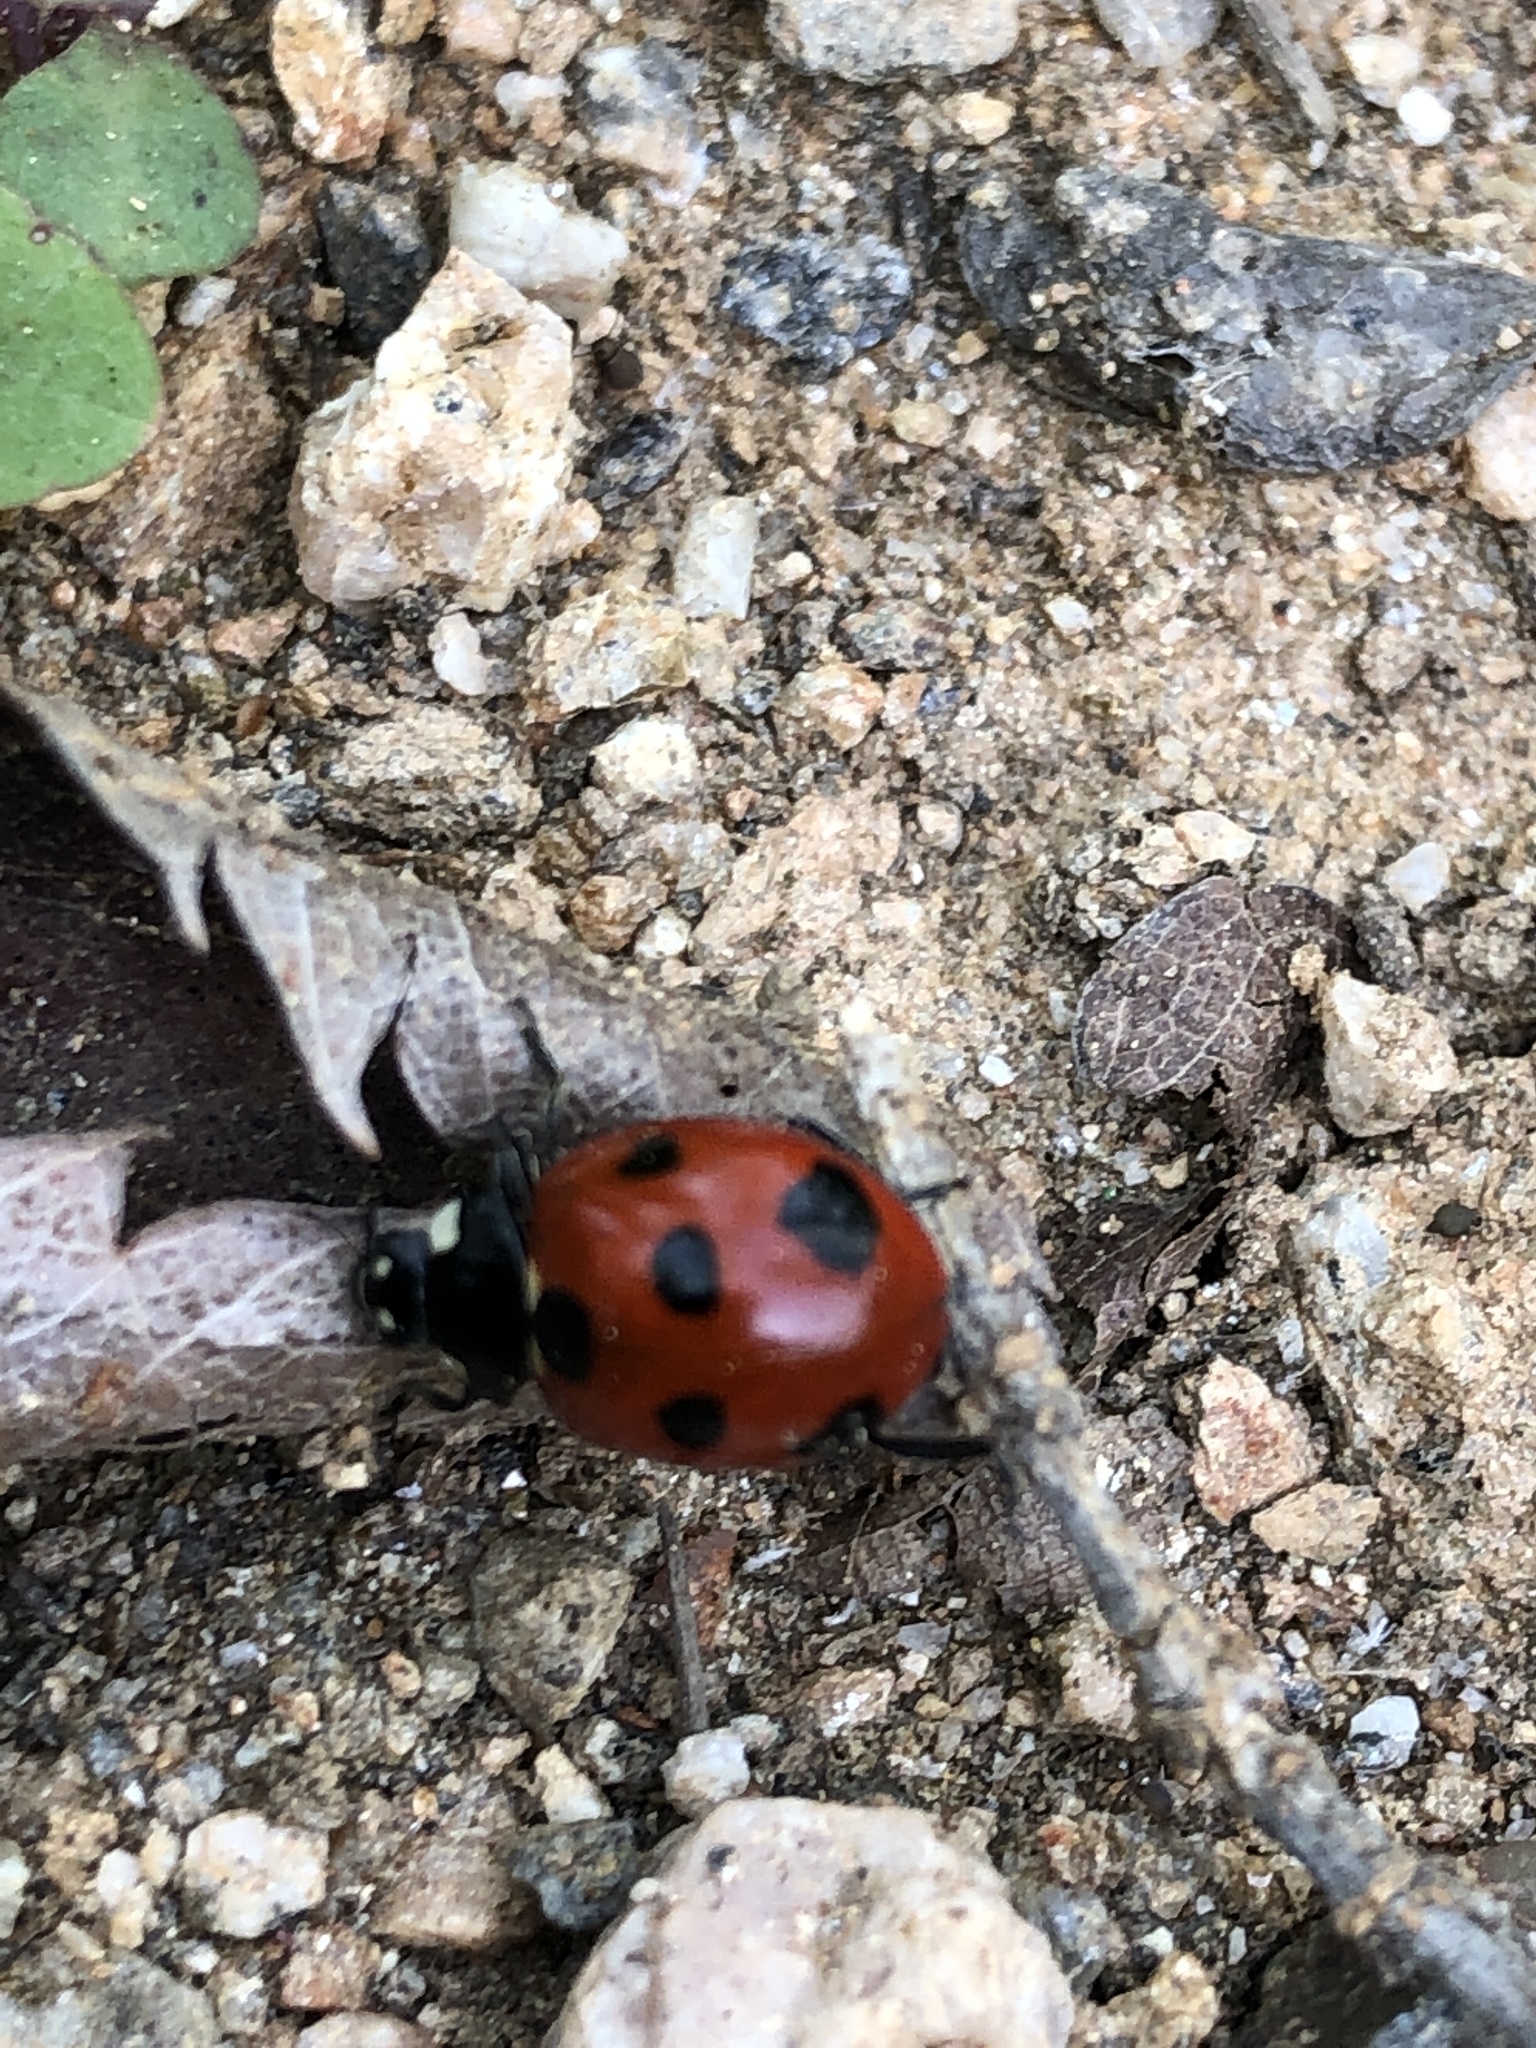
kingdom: Animalia
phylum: Arthropoda
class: Insecta
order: Coleoptera
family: Coccinellidae
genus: Coccinella
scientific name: Coccinella septempunctata
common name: Sevenspotted lady beetle
